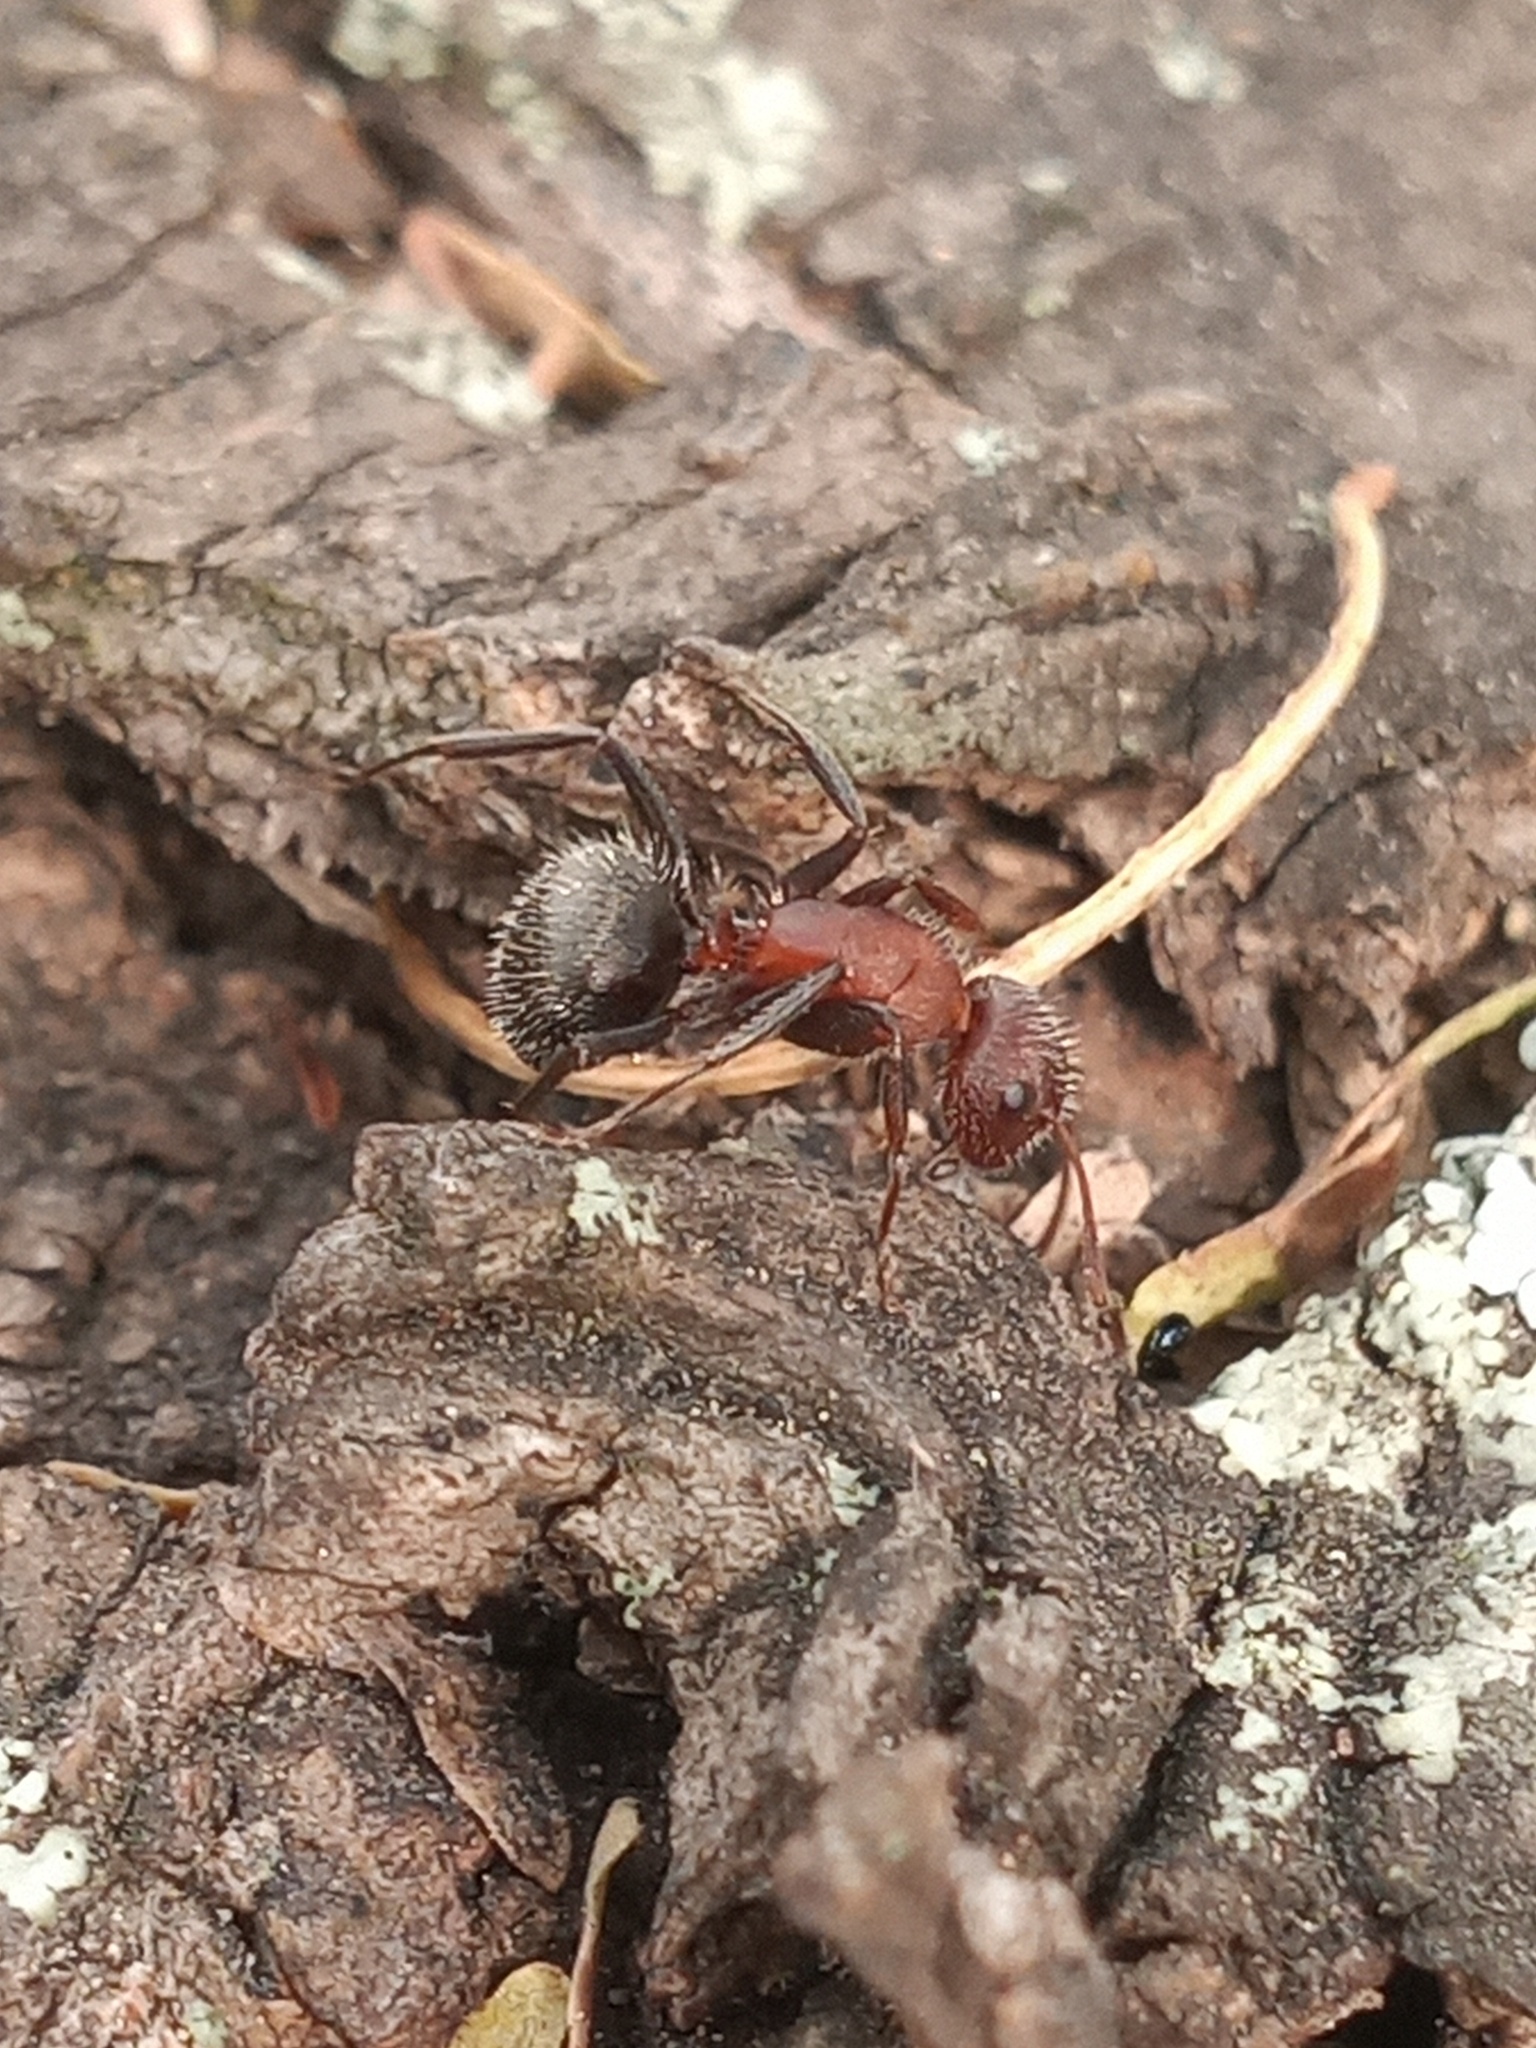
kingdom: Animalia
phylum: Arthropoda
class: Insecta
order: Hymenoptera
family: Formicidae
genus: Camponotus
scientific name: Camponotus planatus
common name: Compact carpenter ant
